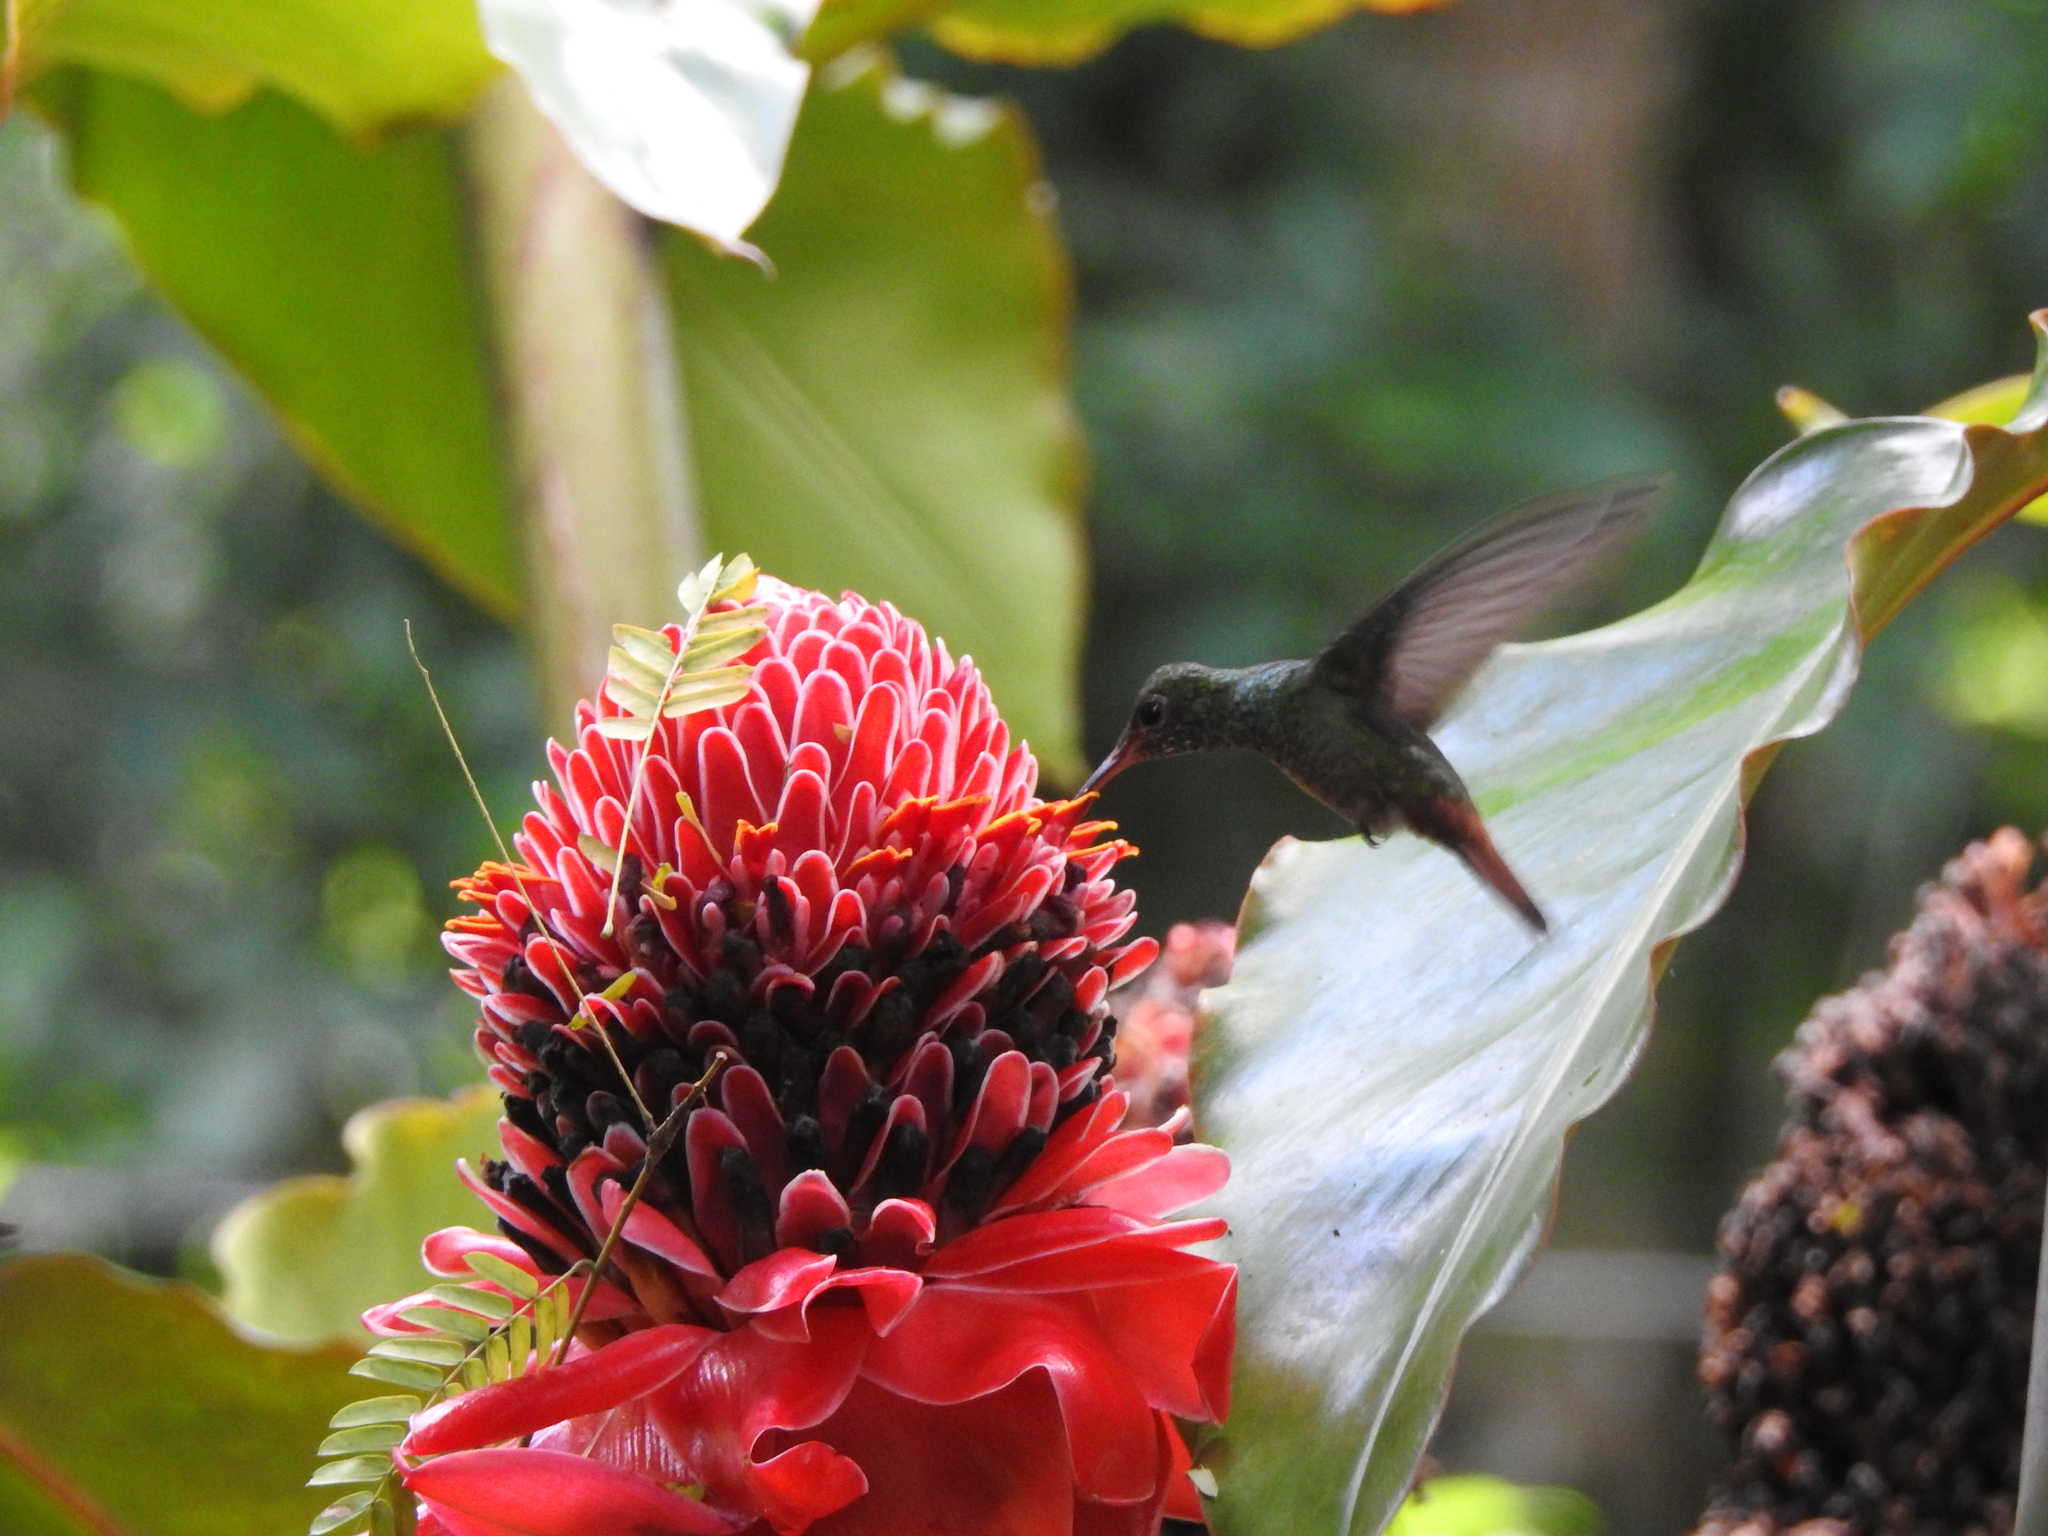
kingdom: Animalia
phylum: Chordata
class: Aves
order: Apodiformes
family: Trochilidae
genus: Amazilia
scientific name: Amazilia tzacatl
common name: Rufous-tailed hummingbird
